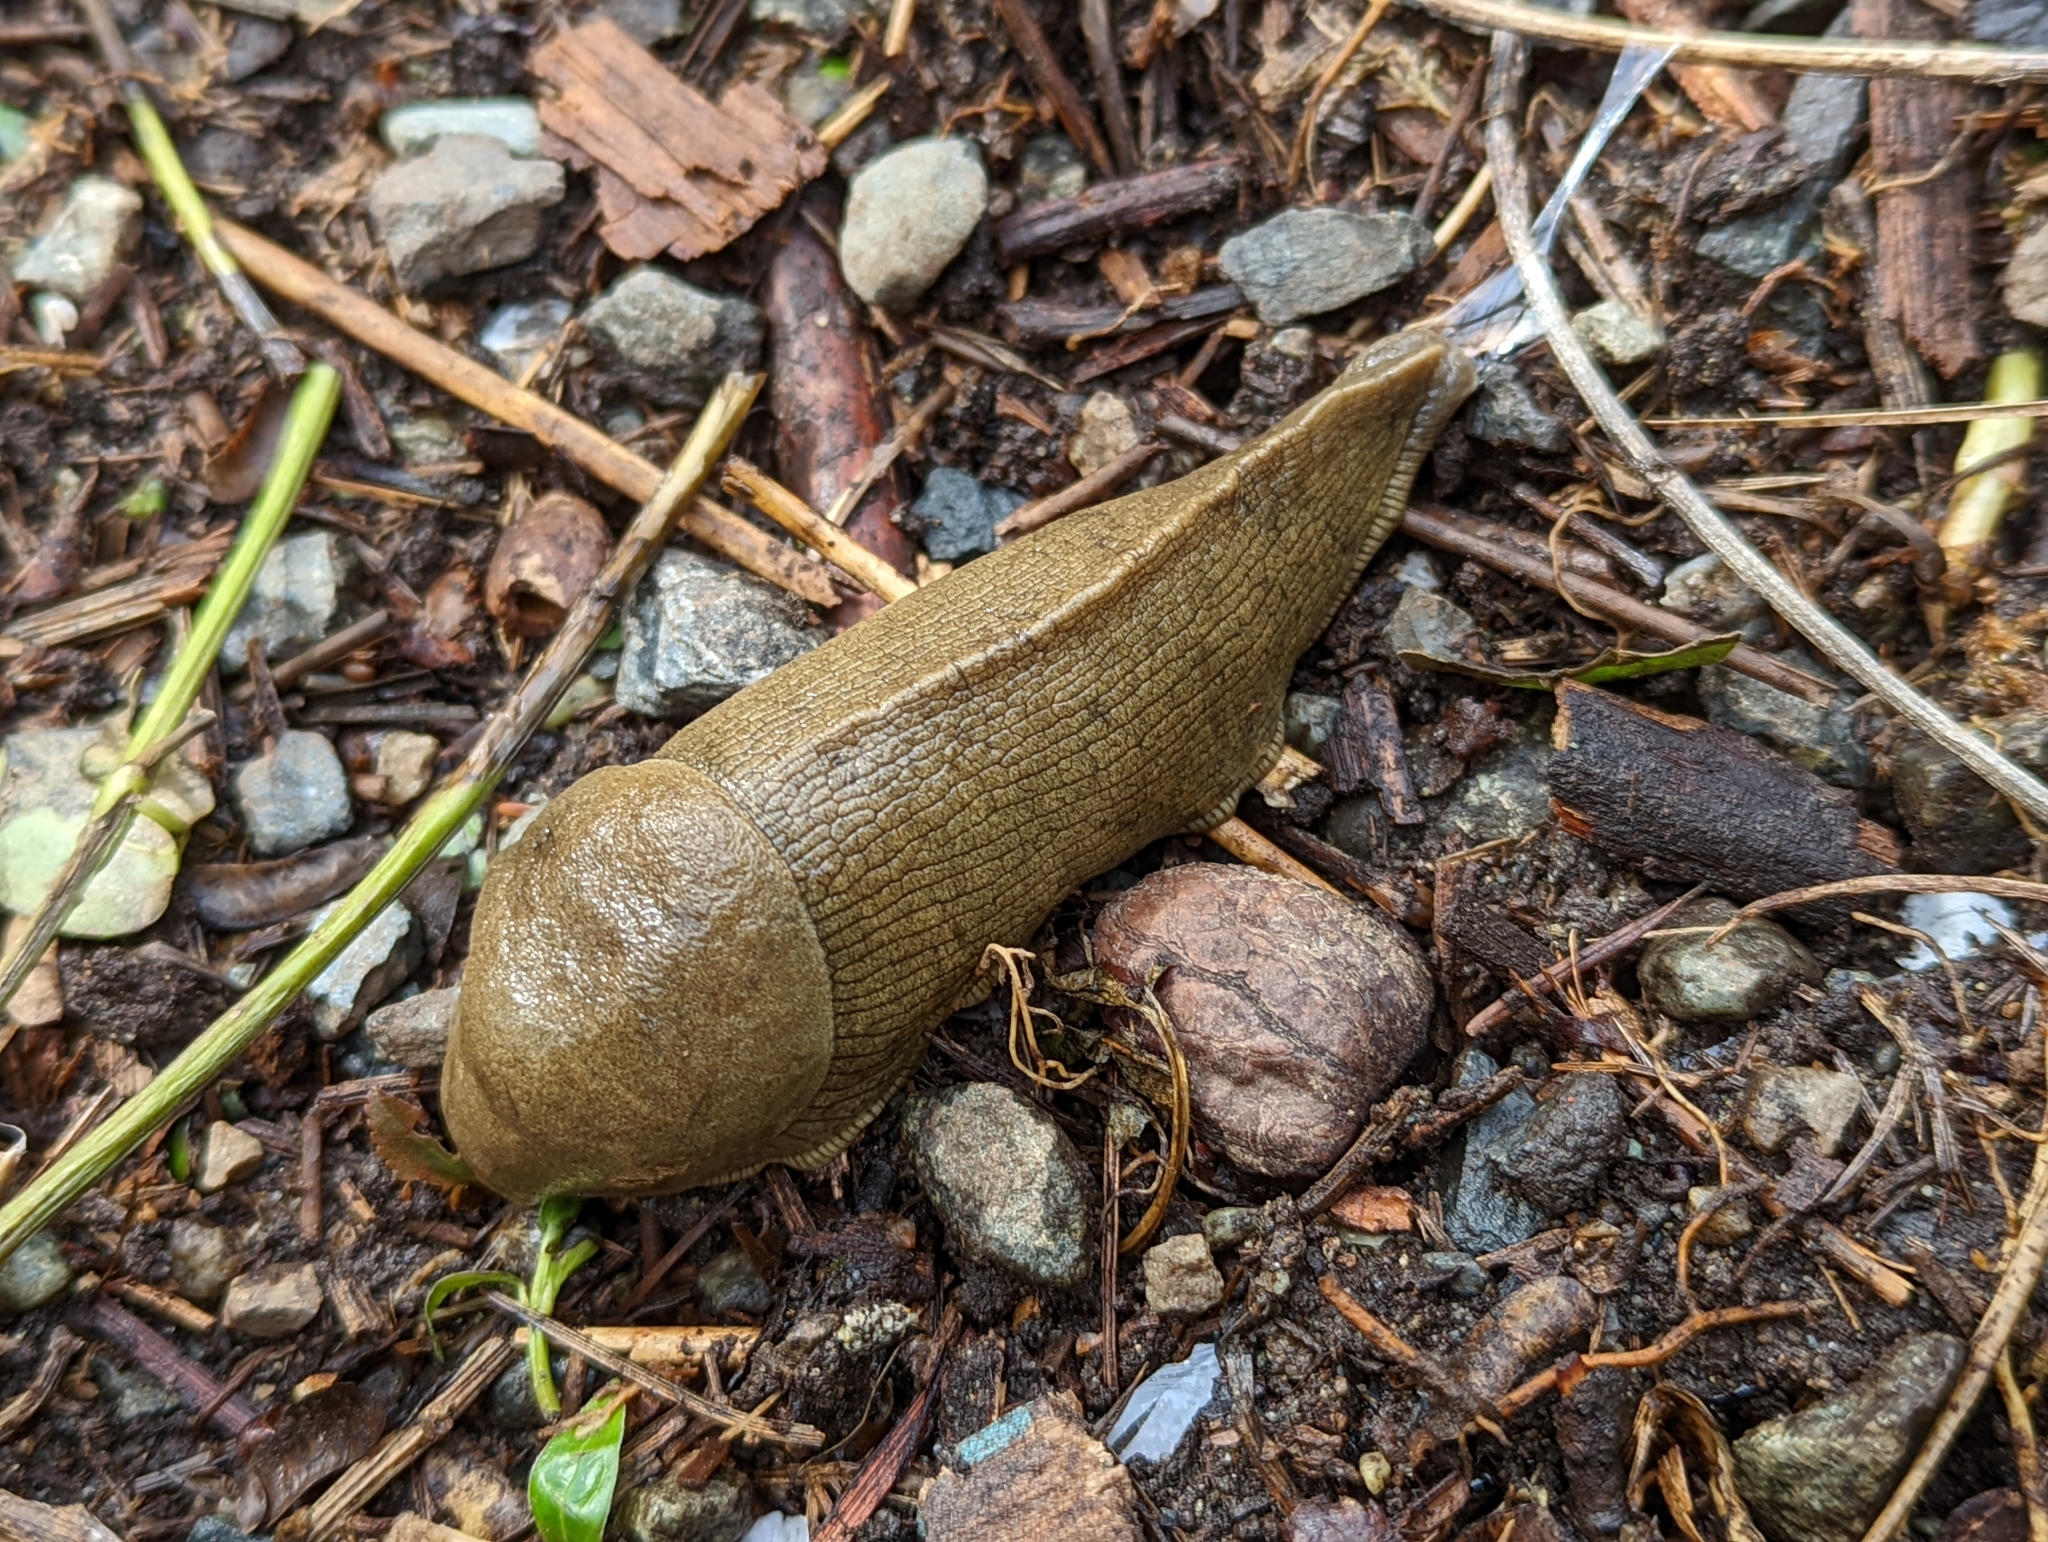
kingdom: Animalia
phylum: Mollusca
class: Gastropoda
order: Stylommatophora
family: Ariolimacidae
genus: Ariolimax
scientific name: Ariolimax columbianus
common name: Pacific banana slug
